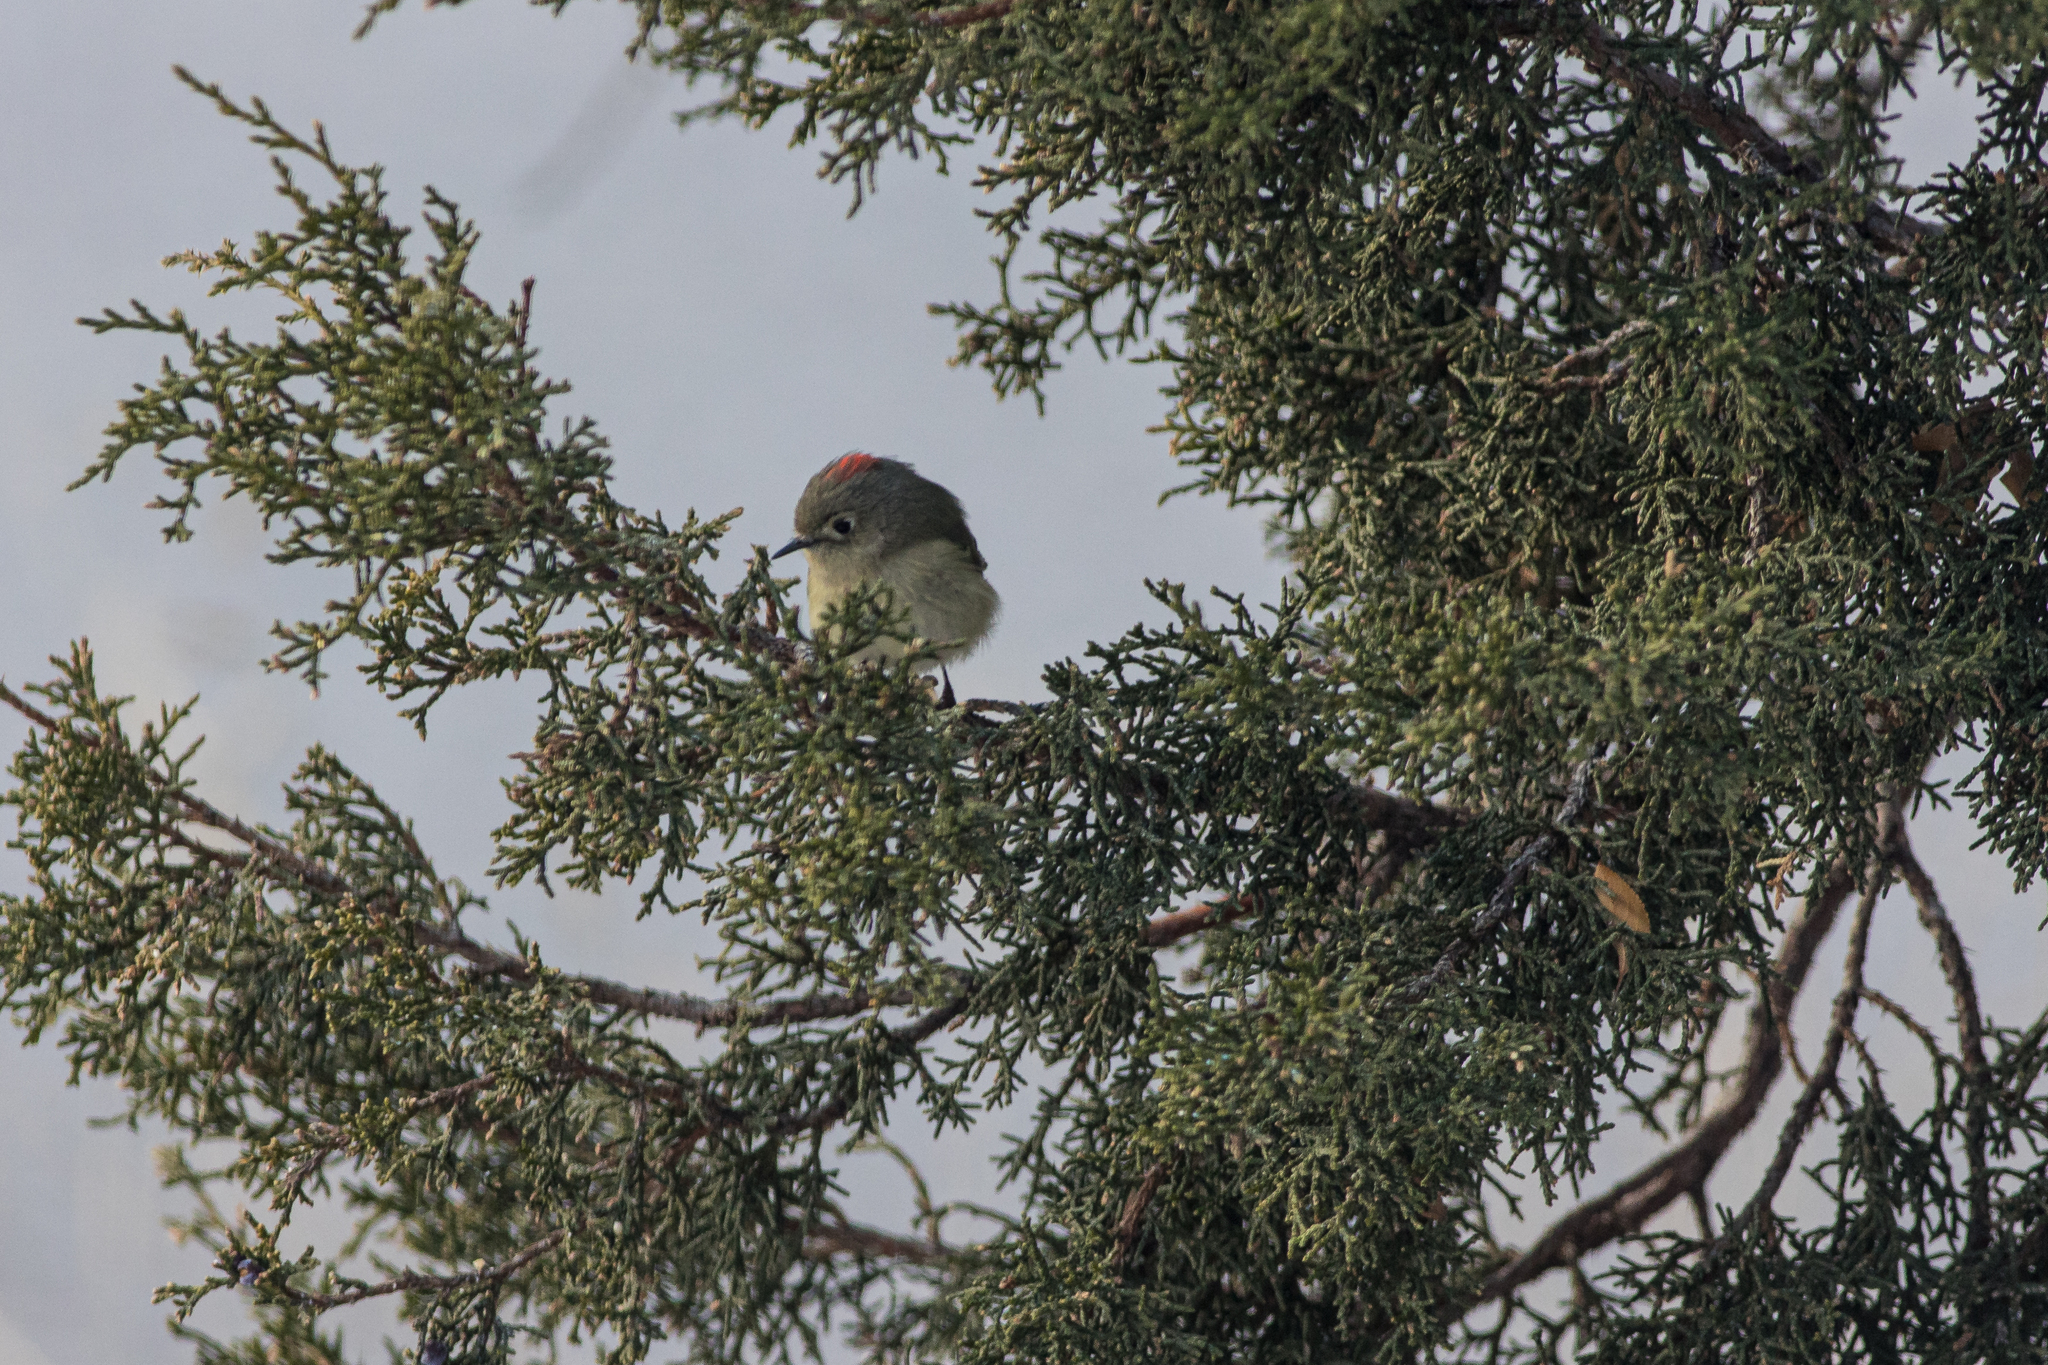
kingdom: Animalia
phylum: Chordata
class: Aves
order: Passeriformes
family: Regulidae
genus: Regulus
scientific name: Regulus calendula
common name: Ruby-crowned kinglet
